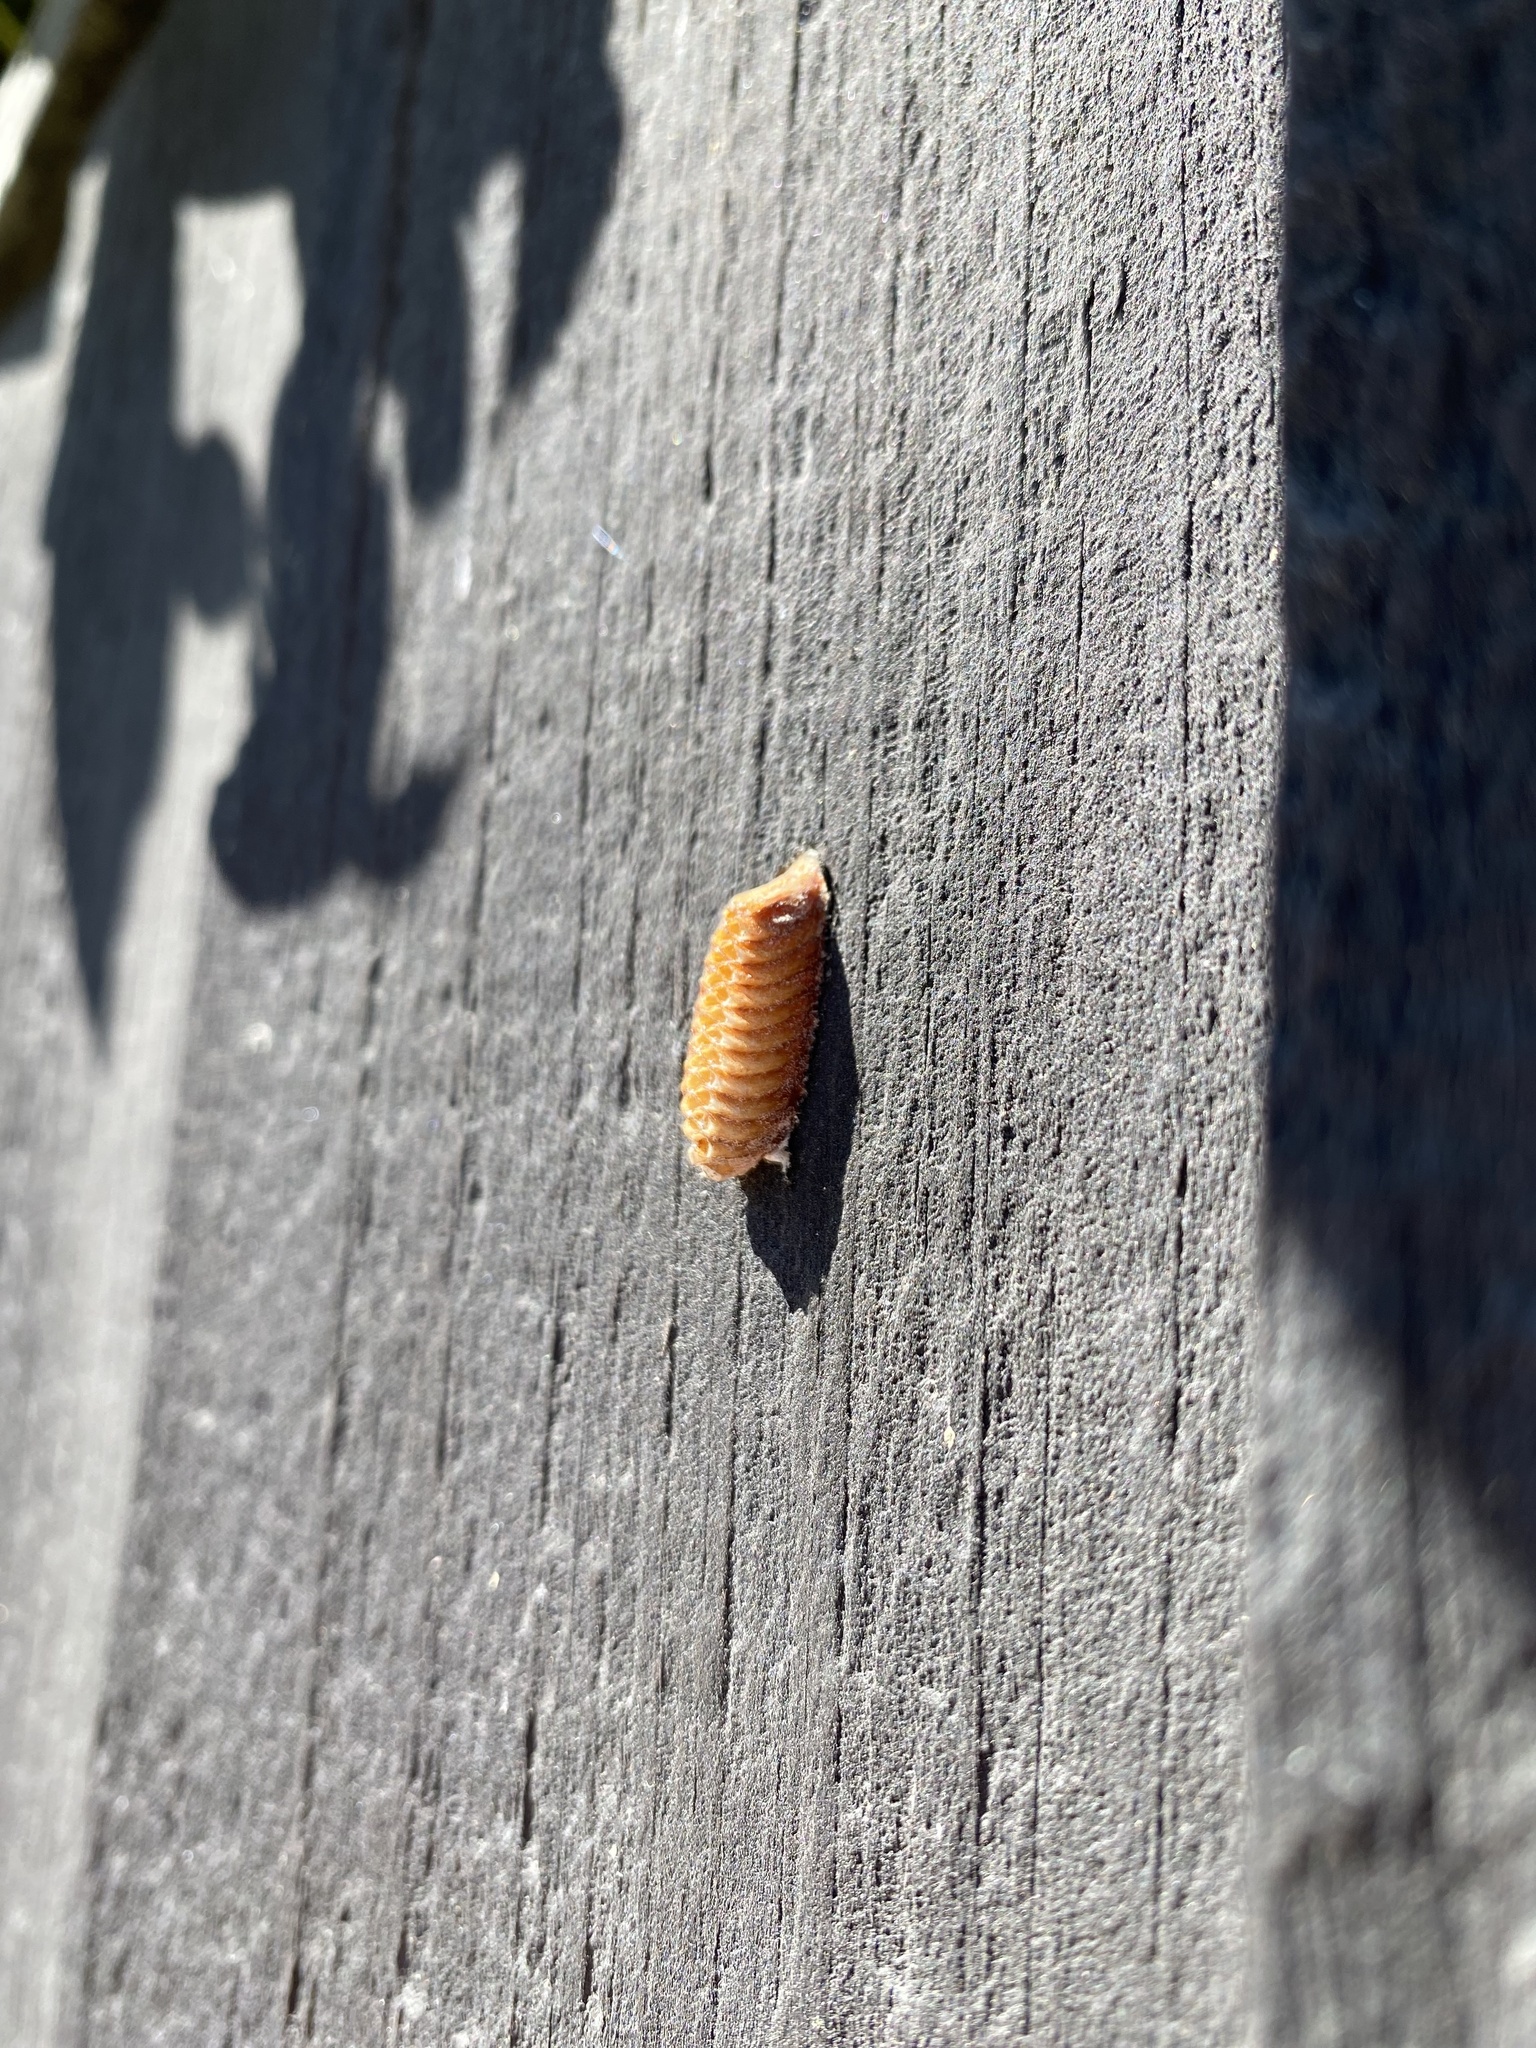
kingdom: Animalia
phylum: Arthropoda
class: Insecta
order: Mantodea
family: Mantidae
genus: Orthodera
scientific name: Orthodera novaezealandiae
